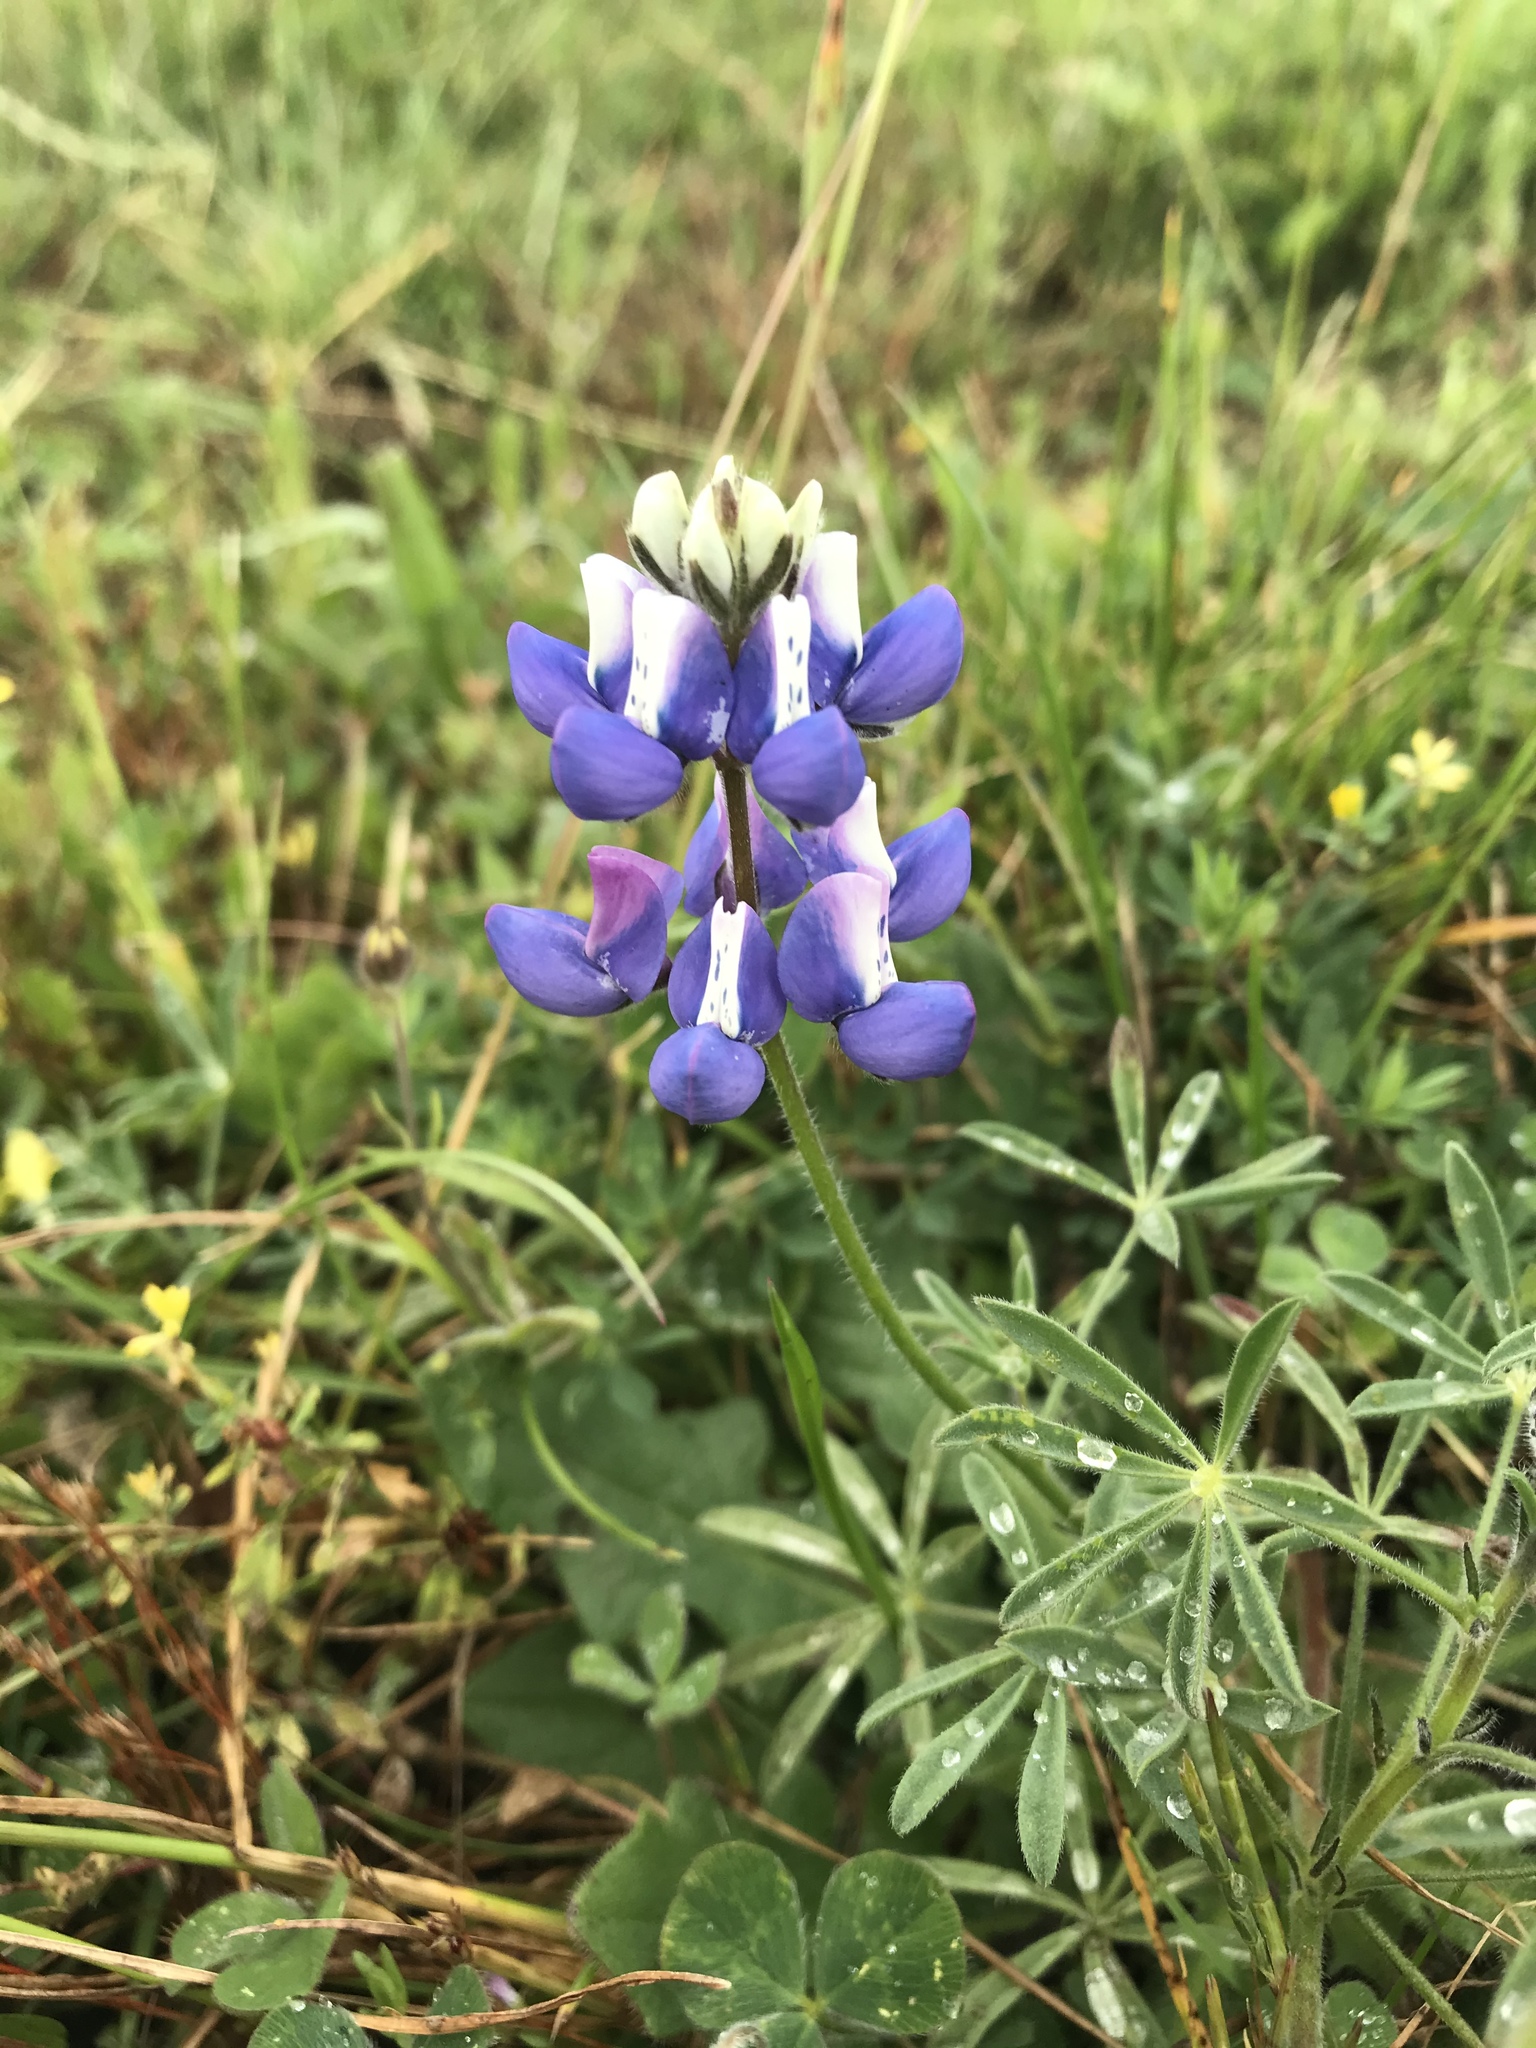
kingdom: Plantae
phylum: Tracheophyta
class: Magnoliopsida
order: Fabales
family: Fabaceae
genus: Lupinus
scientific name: Lupinus nanus
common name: Orean blue lupin
